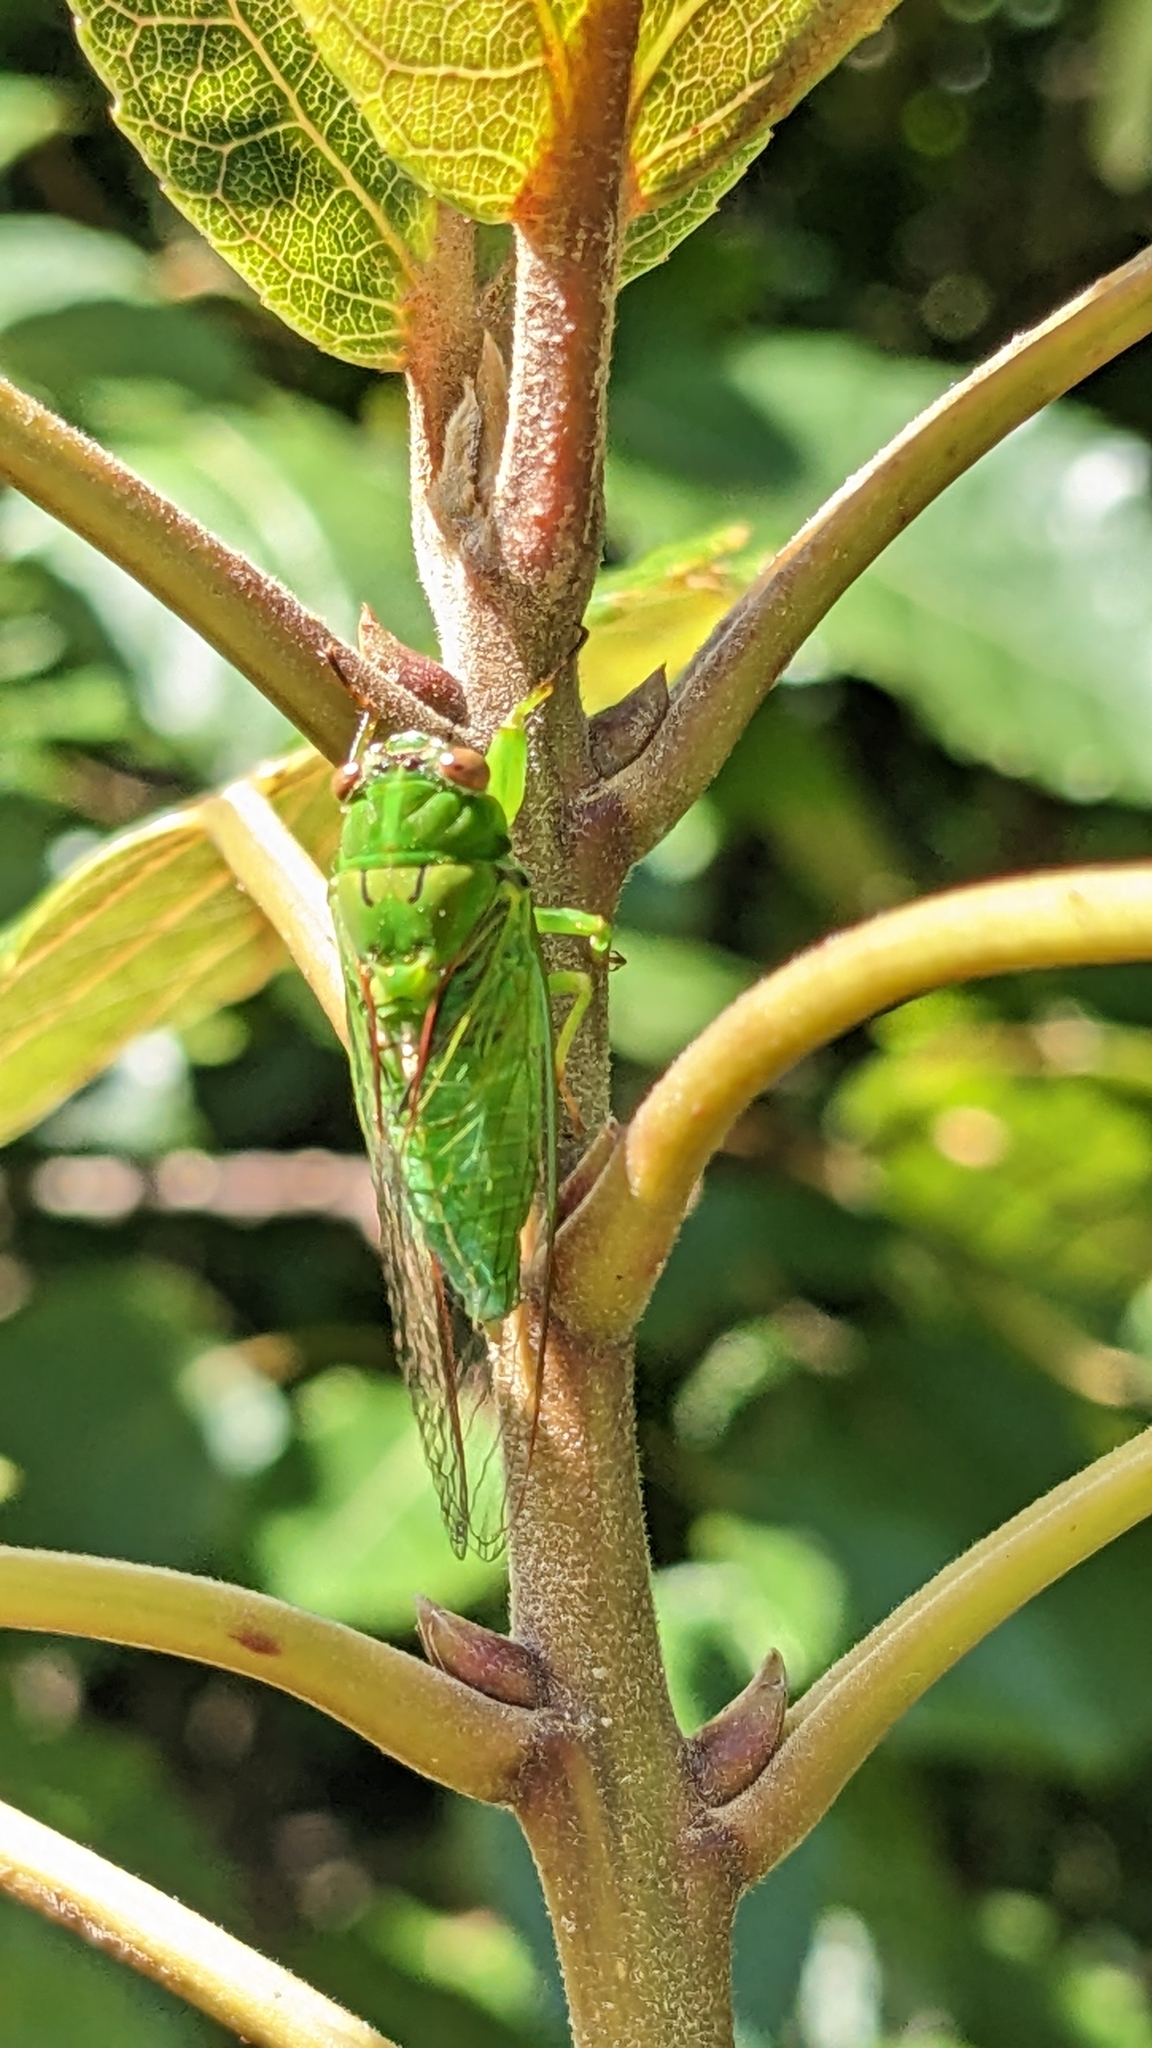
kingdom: Animalia
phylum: Arthropoda
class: Insecta
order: Hemiptera
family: Cicadidae
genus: Kikihia
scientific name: Kikihia ochrina
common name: April green cicada
